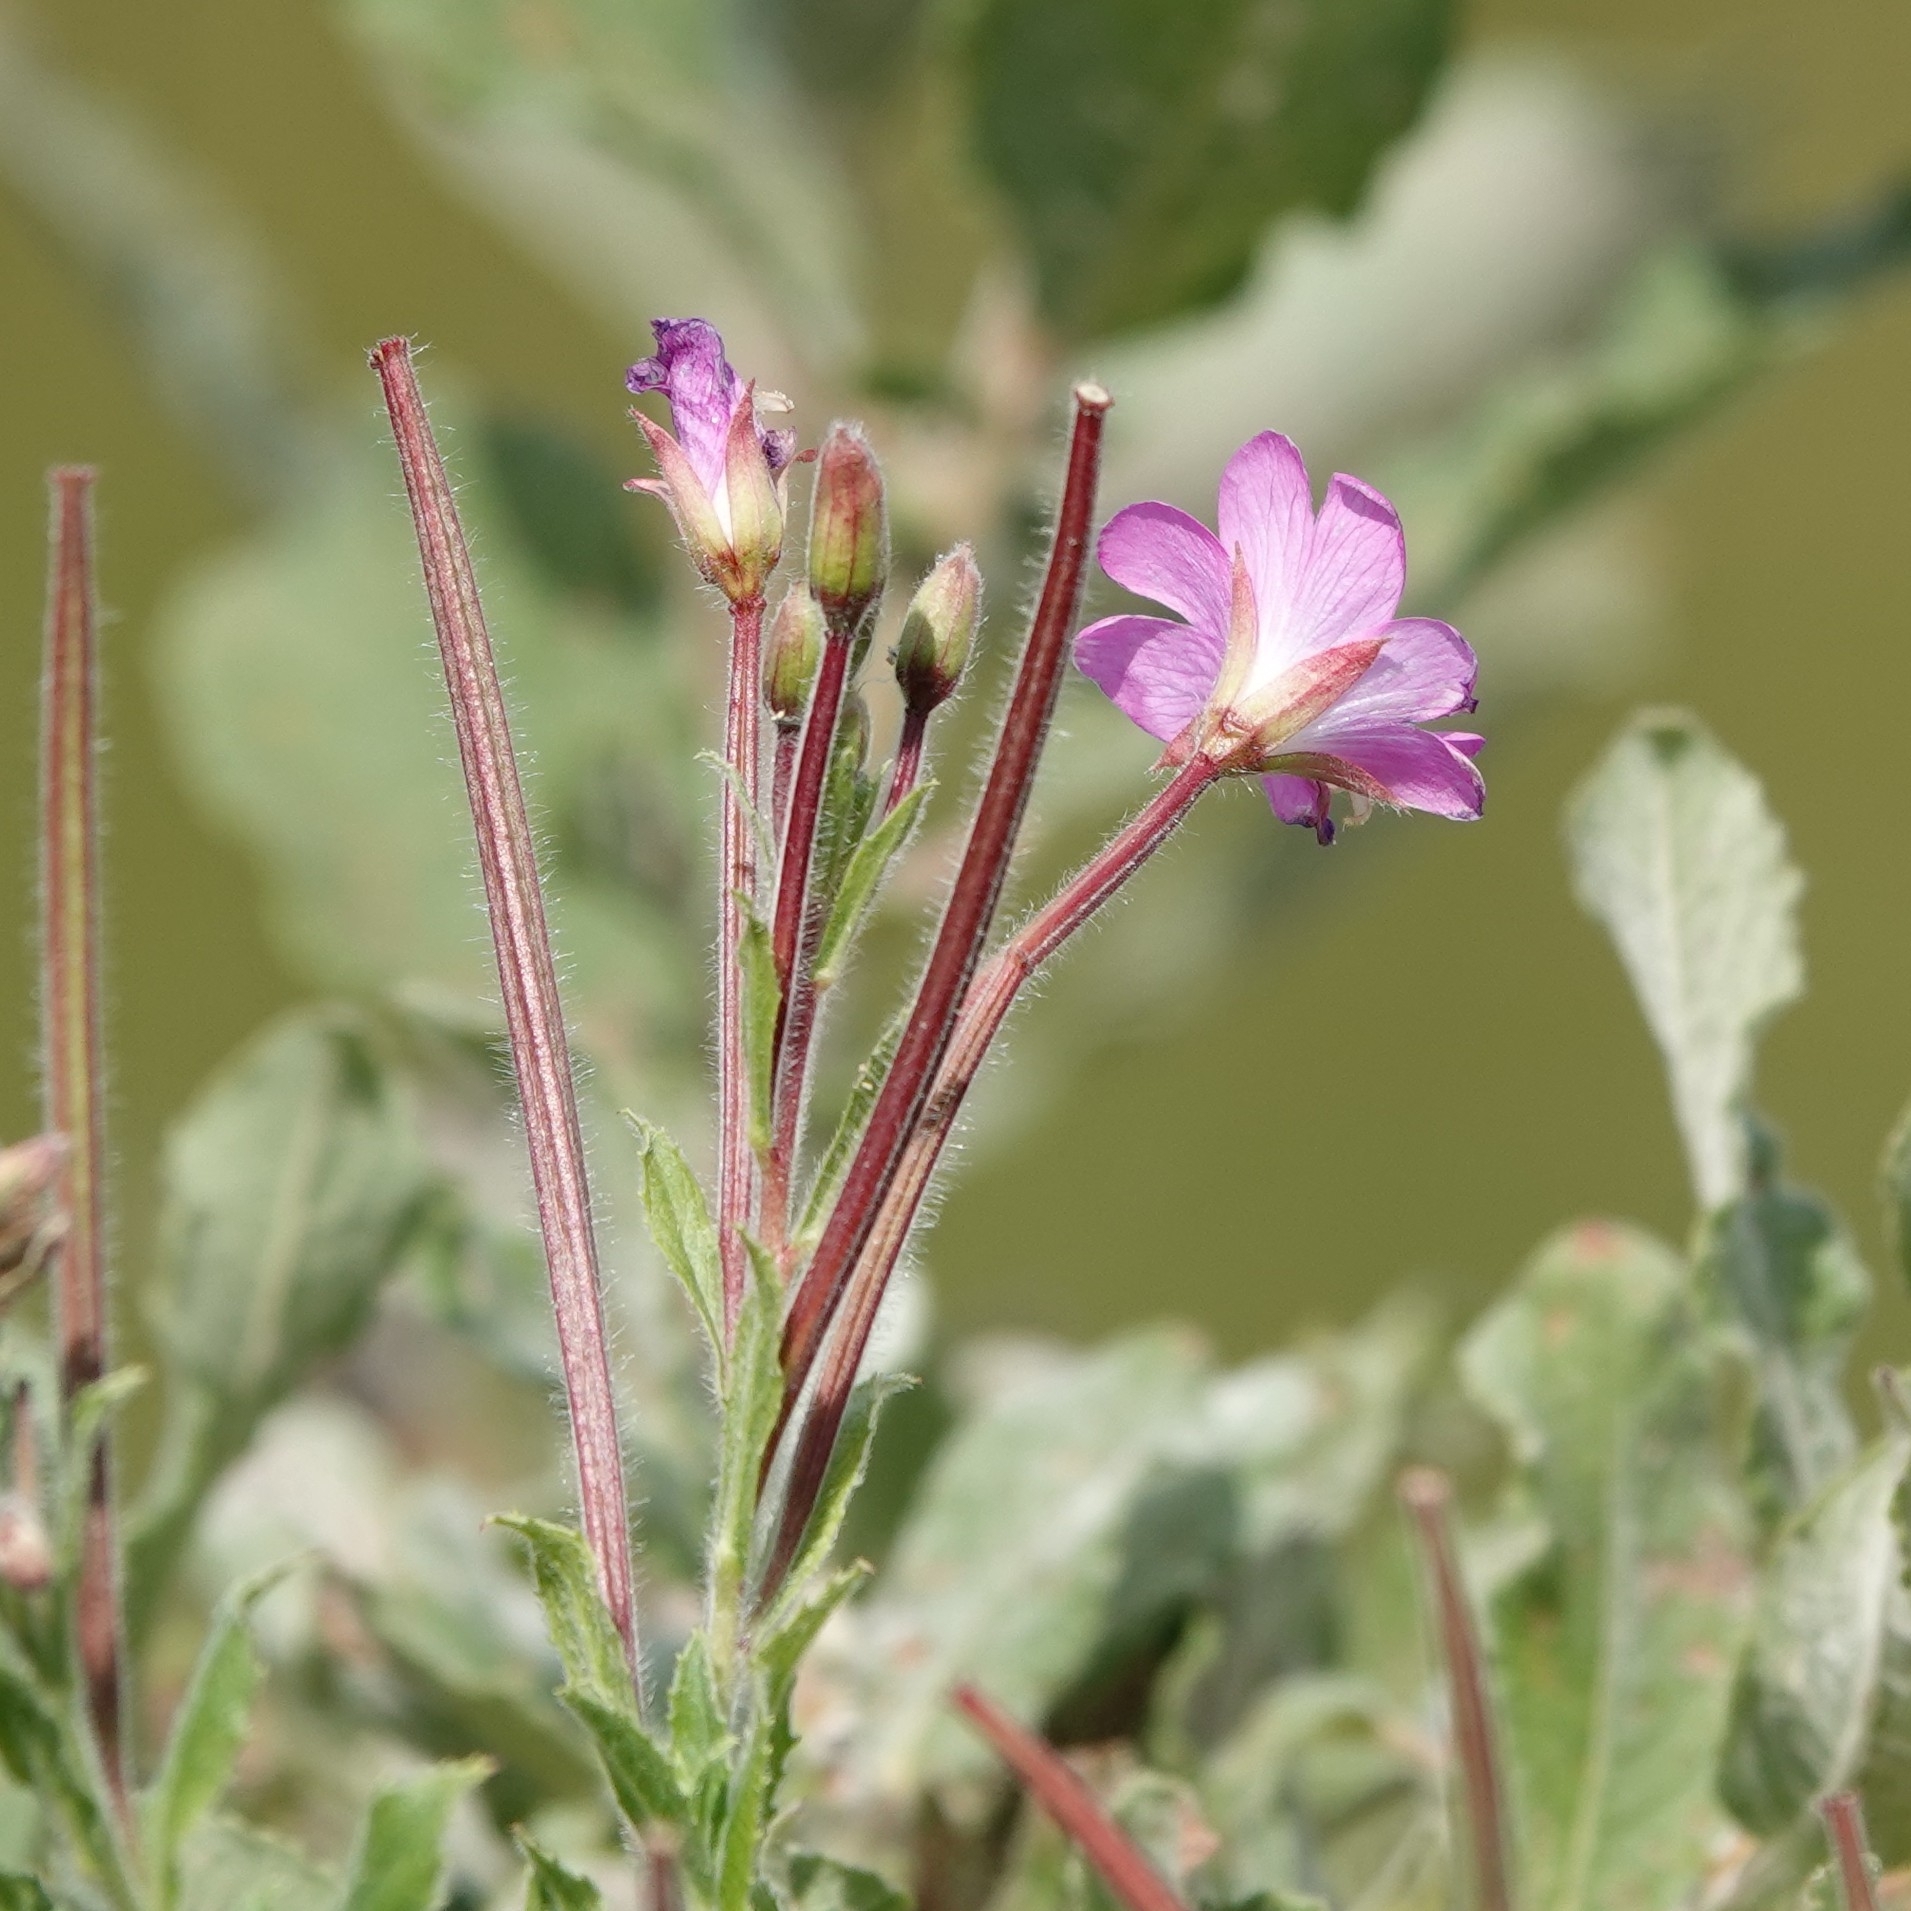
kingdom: Plantae
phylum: Tracheophyta
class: Magnoliopsida
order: Myrtales
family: Onagraceae
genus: Epilobium
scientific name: Epilobium hirsutum
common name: Great willowherb
